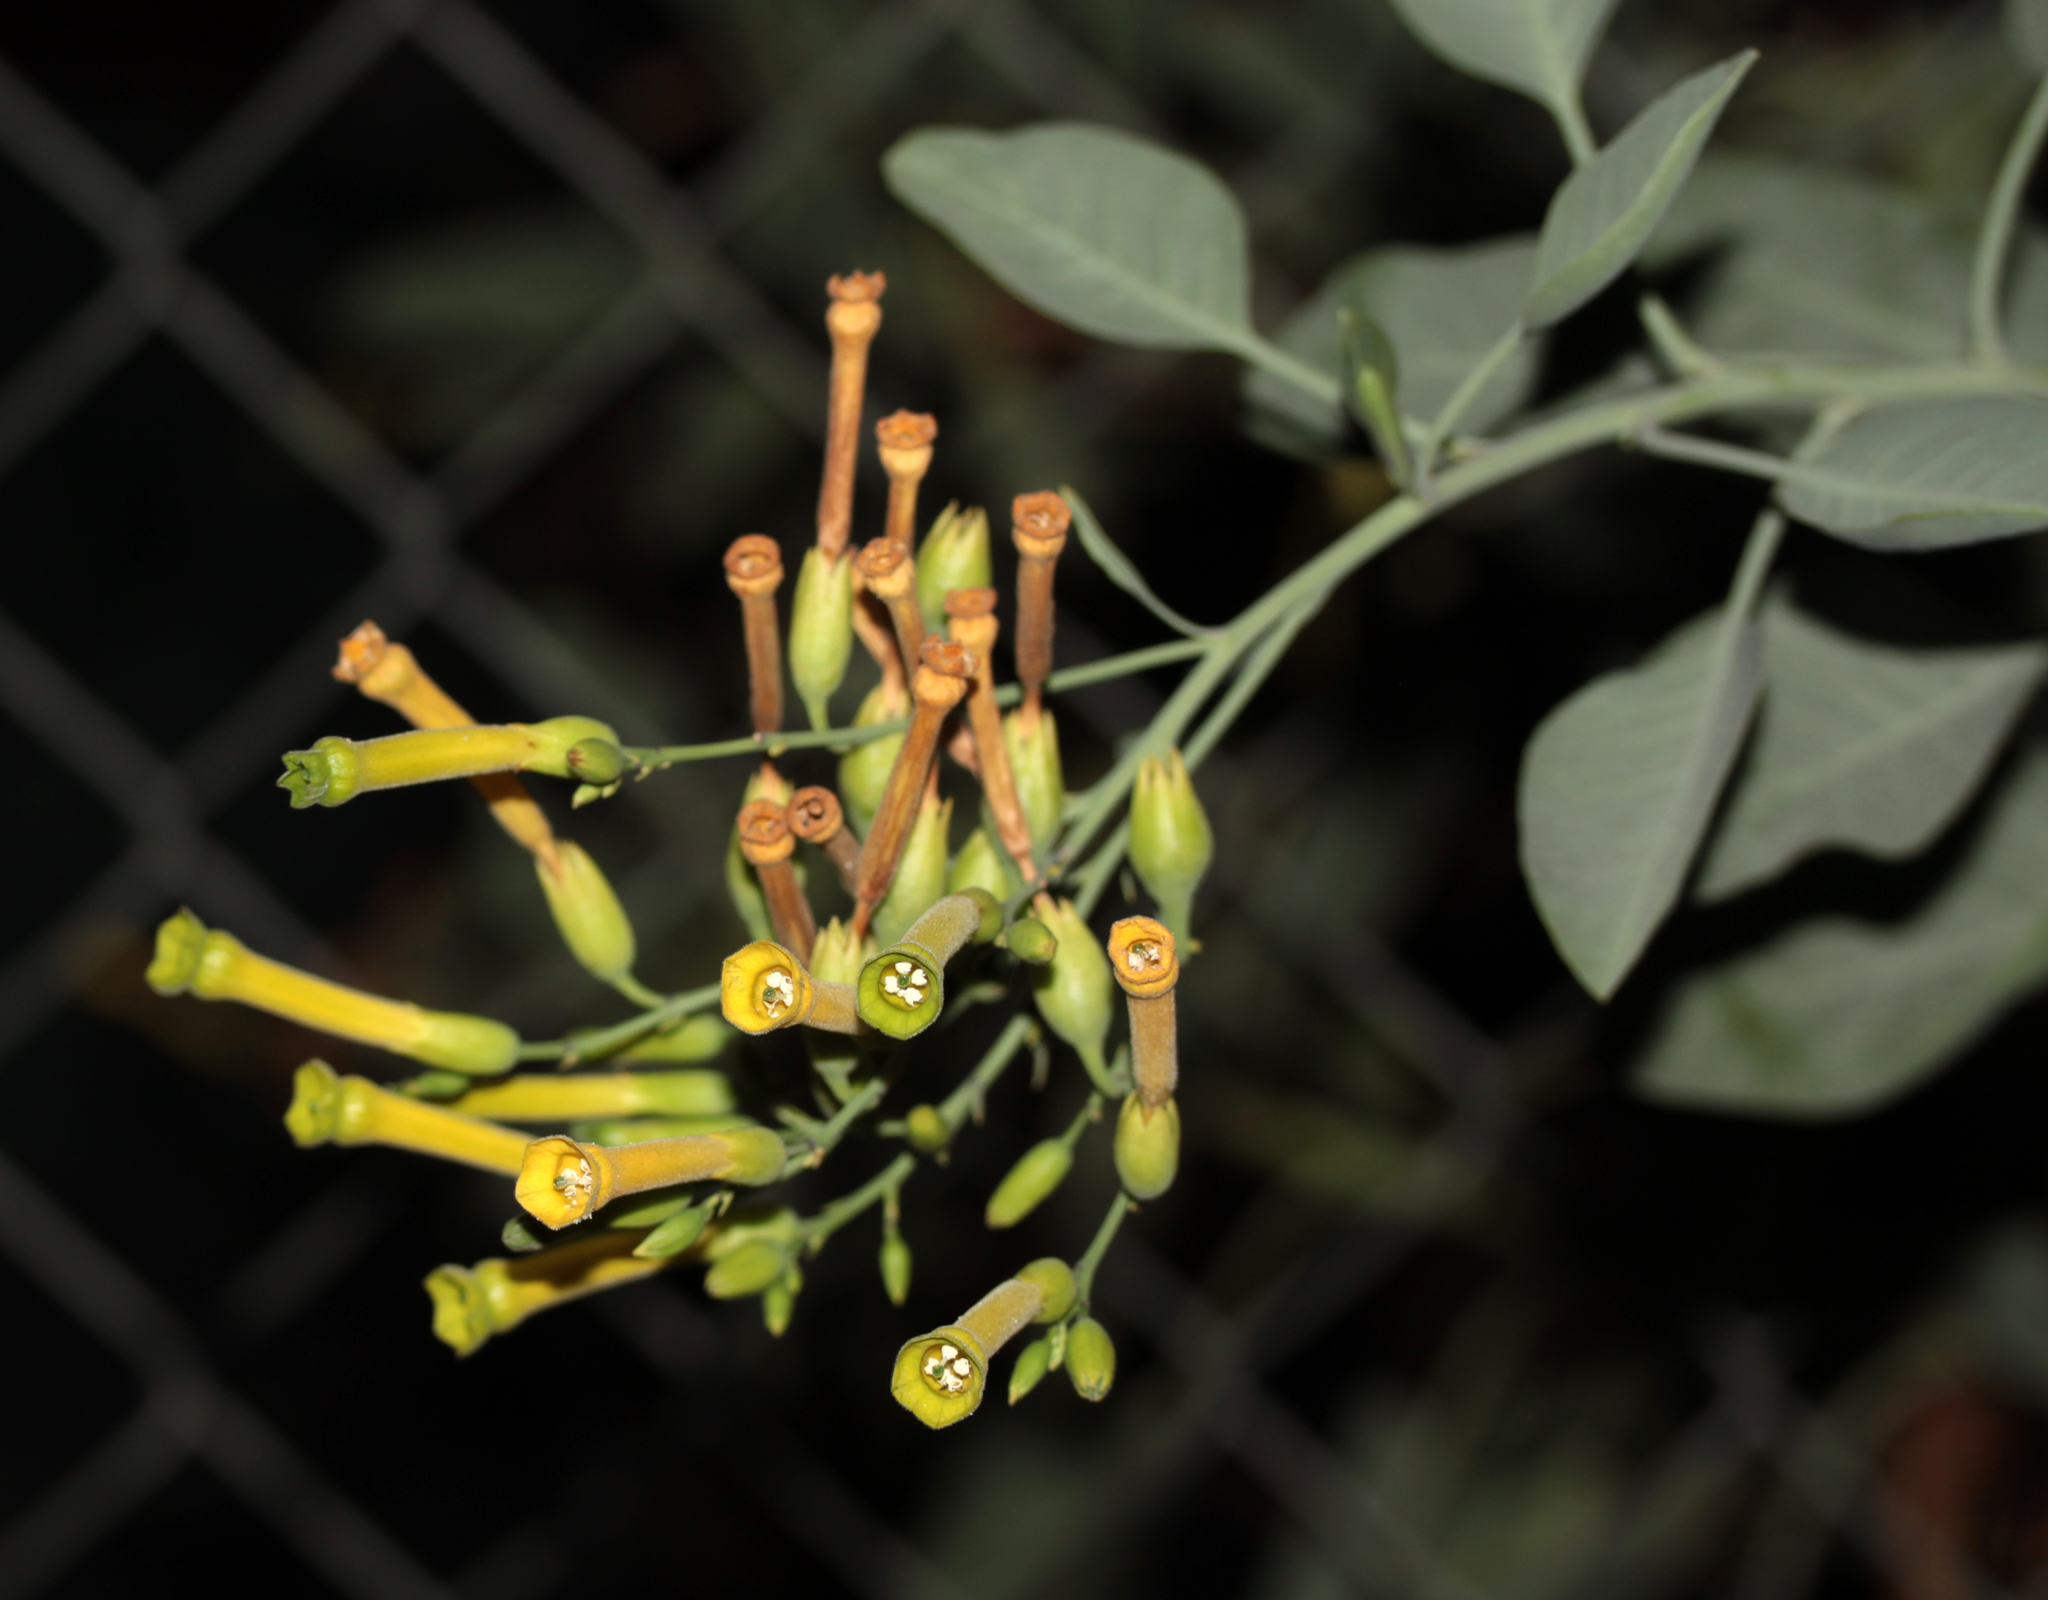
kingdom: Plantae
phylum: Tracheophyta
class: Magnoliopsida
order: Solanales
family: Solanaceae
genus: Nicotiana
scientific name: Nicotiana glauca
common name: Tree tobacco
